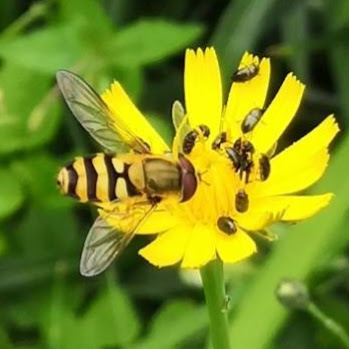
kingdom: Animalia
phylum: Arthropoda
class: Insecta
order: Diptera
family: Syrphidae
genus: Syrphus
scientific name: Syrphus
